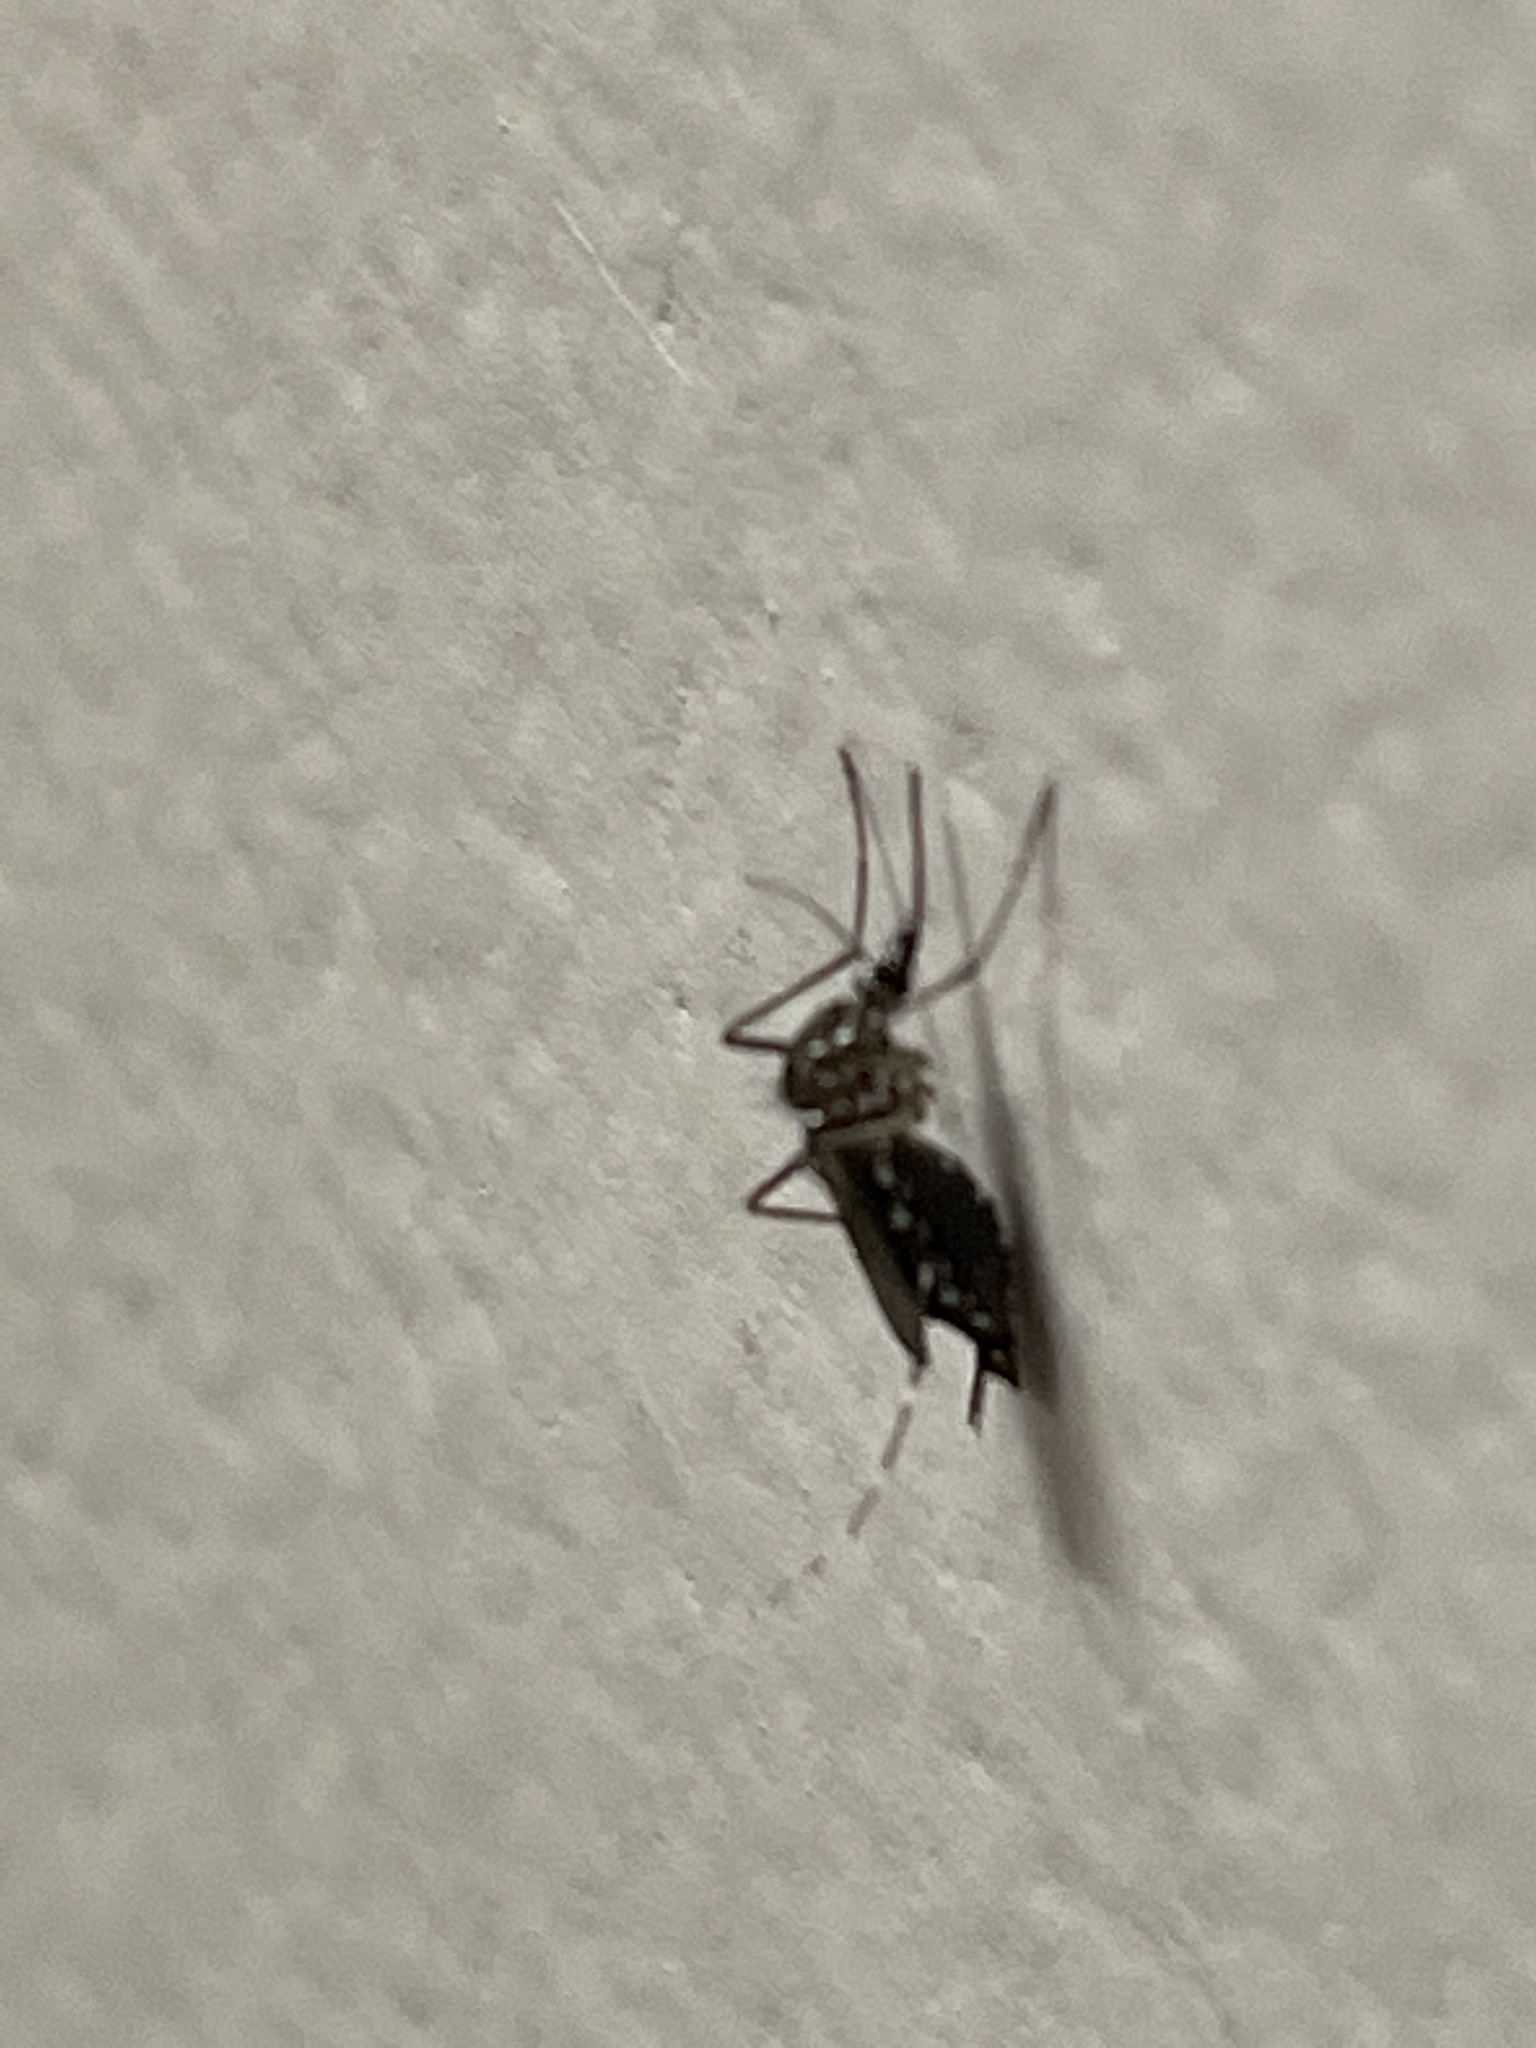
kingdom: Animalia
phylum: Arthropoda
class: Insecta
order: Diptera
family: Culicidae
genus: Aedes
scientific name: Aedes aegypti
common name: Yellow fever mosquito
